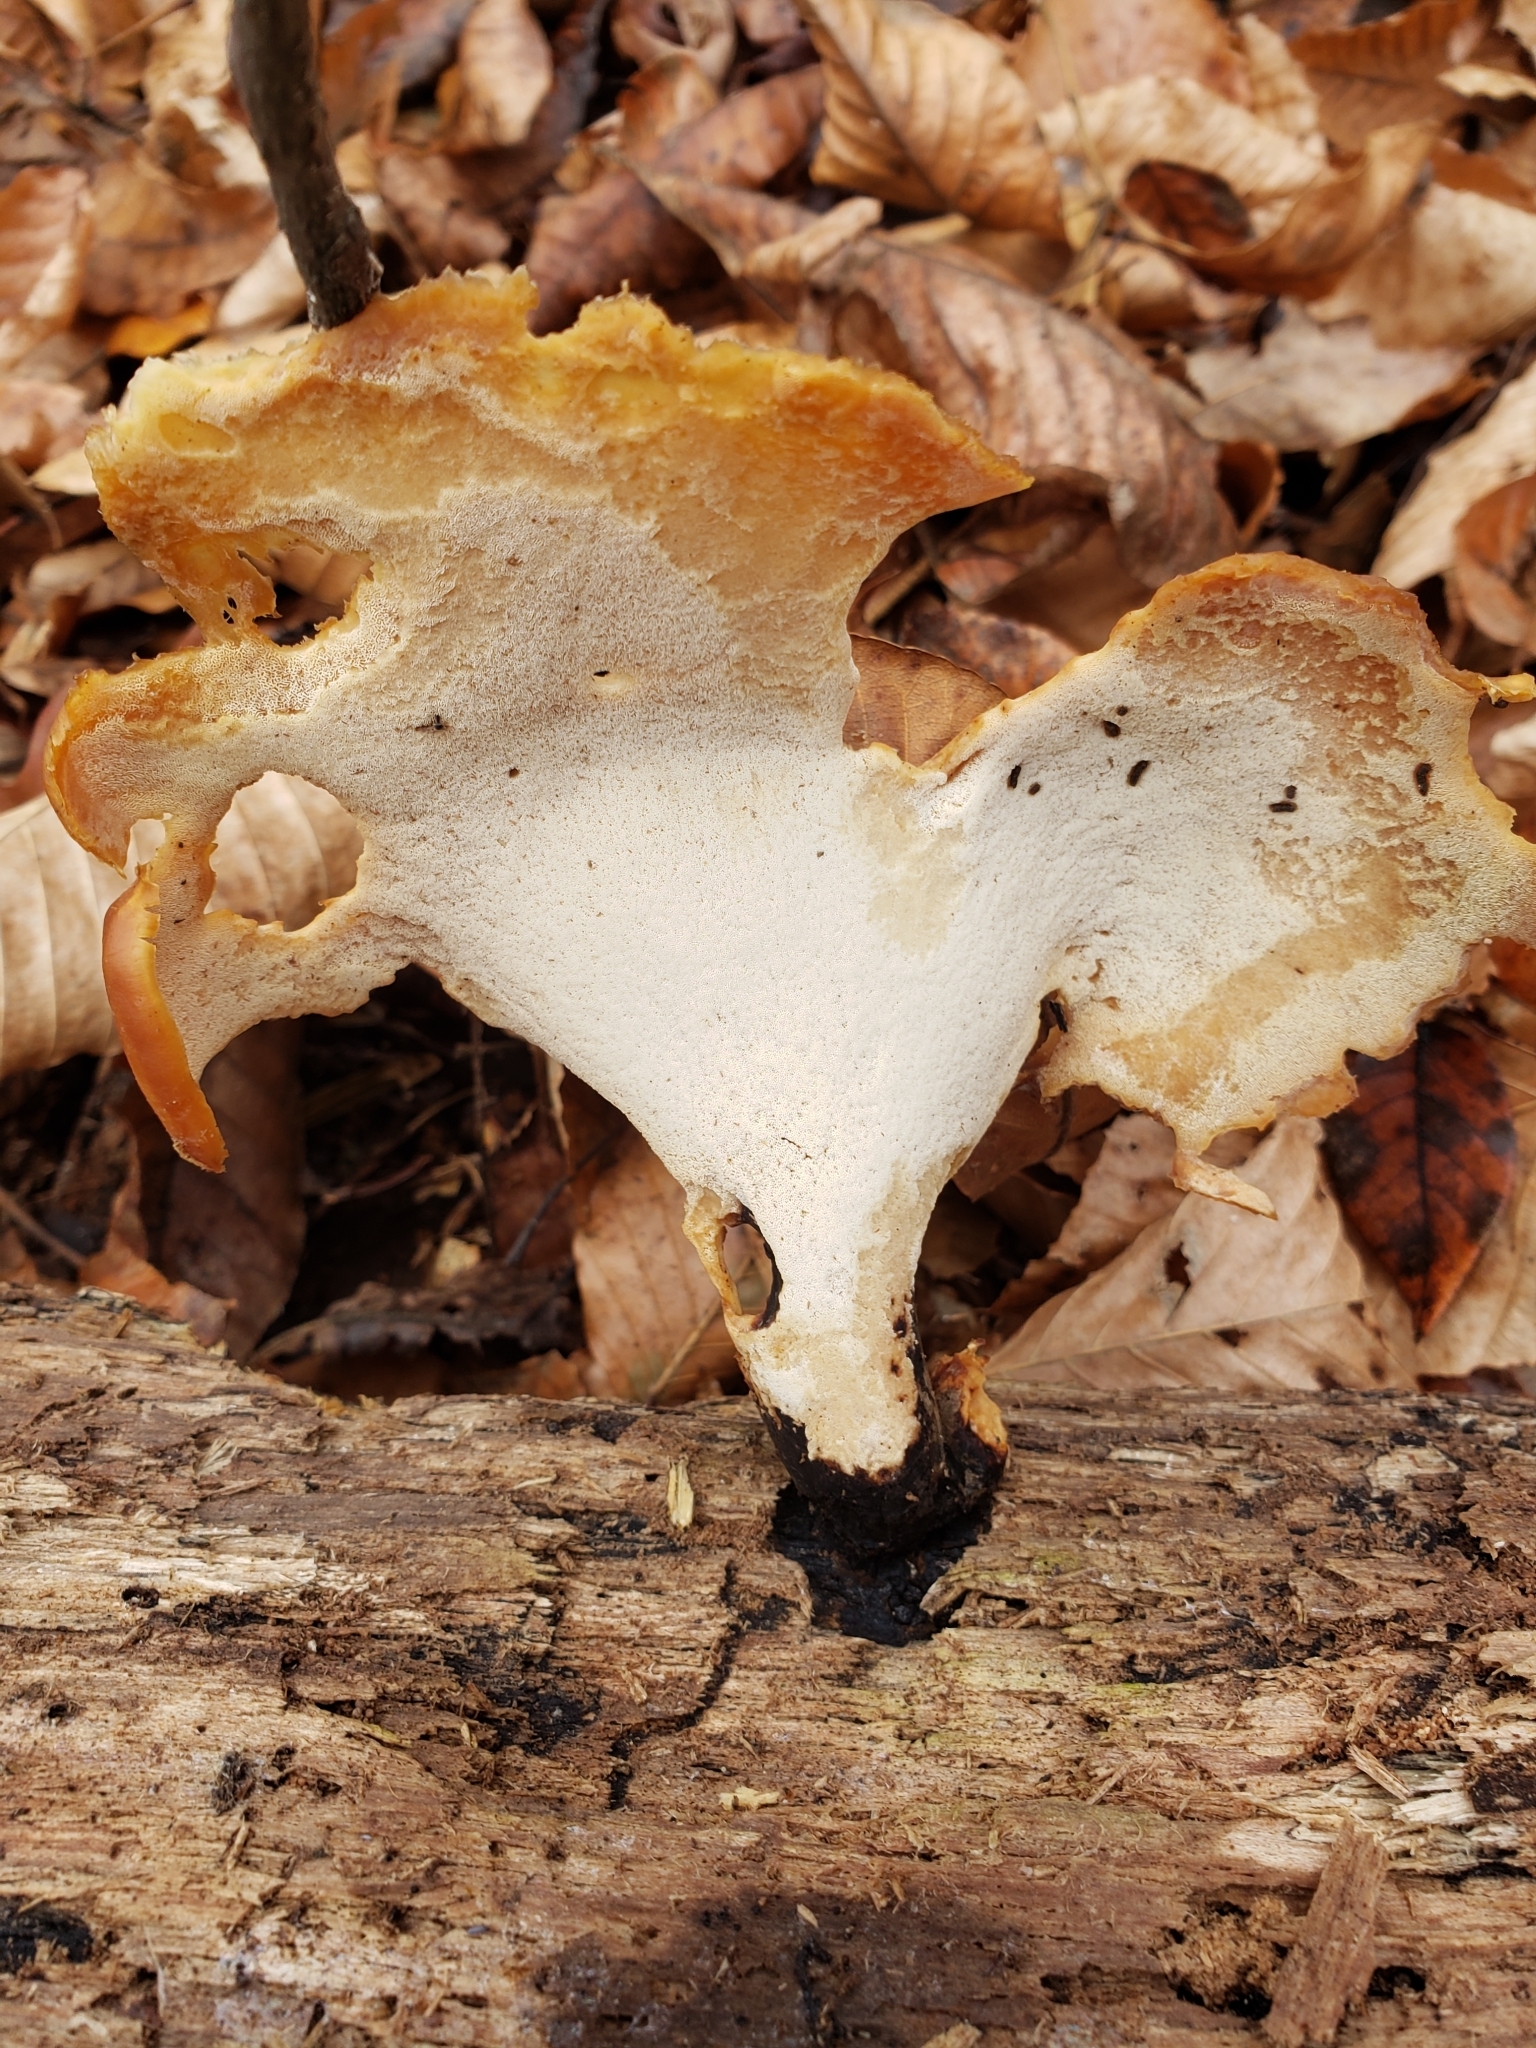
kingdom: Fungi
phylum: Basidiomycota
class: Agaricomycetes
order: Polyporales
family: Polyporaceae
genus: Picipes
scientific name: Picipes badius
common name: Bay polypore
